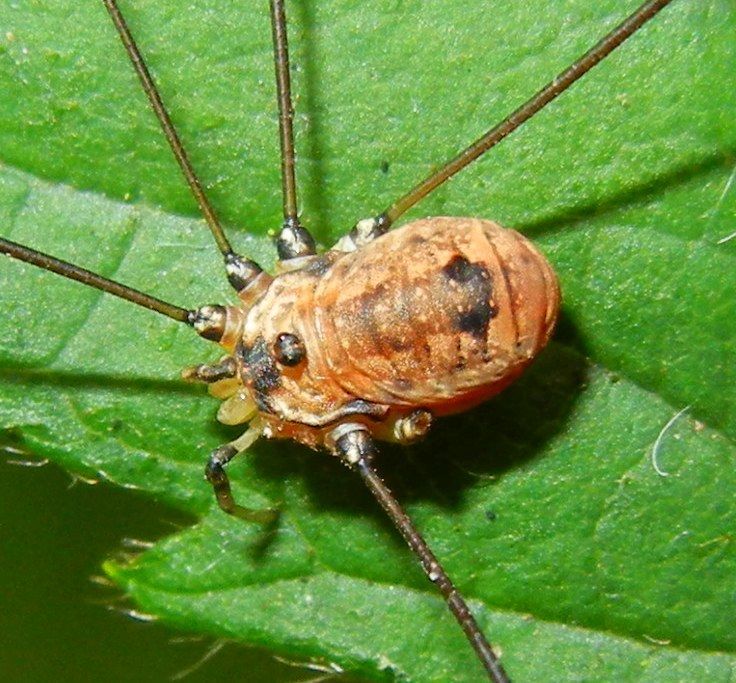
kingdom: Animalia
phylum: Arthropoda
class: Arachnida
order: Opiliones
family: Sclerosomatidae
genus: Leiobunum
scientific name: Leiobunum rotundum
